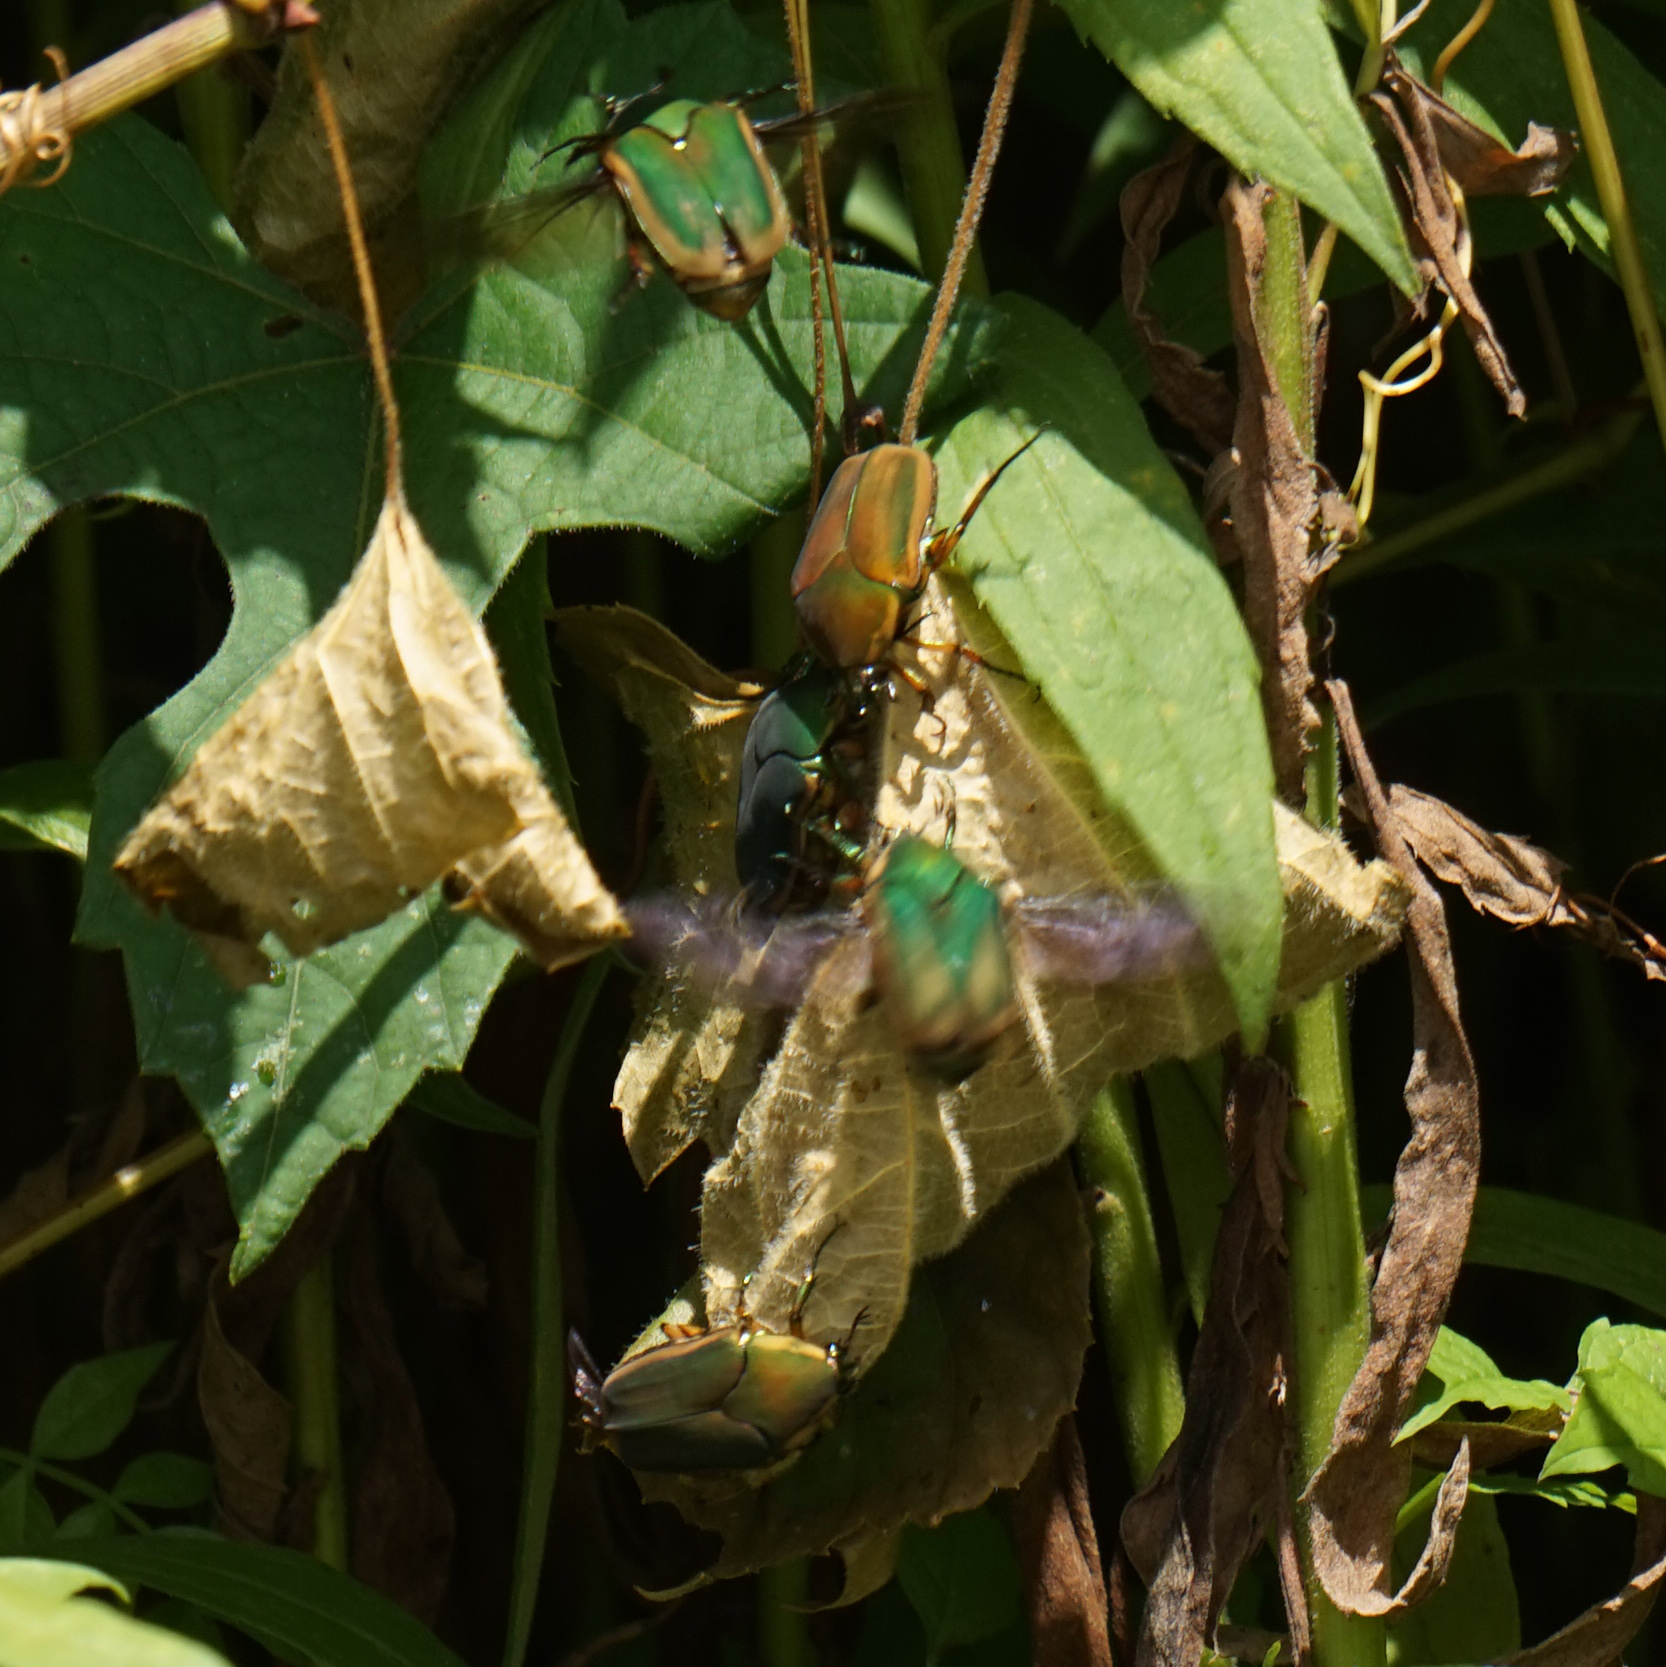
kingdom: Animalia
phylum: Arthropoda
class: Insecta
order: Coleoptera
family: Scarabaeidae
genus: Cotinis
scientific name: Cotinis nitida
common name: Common green june beetle
